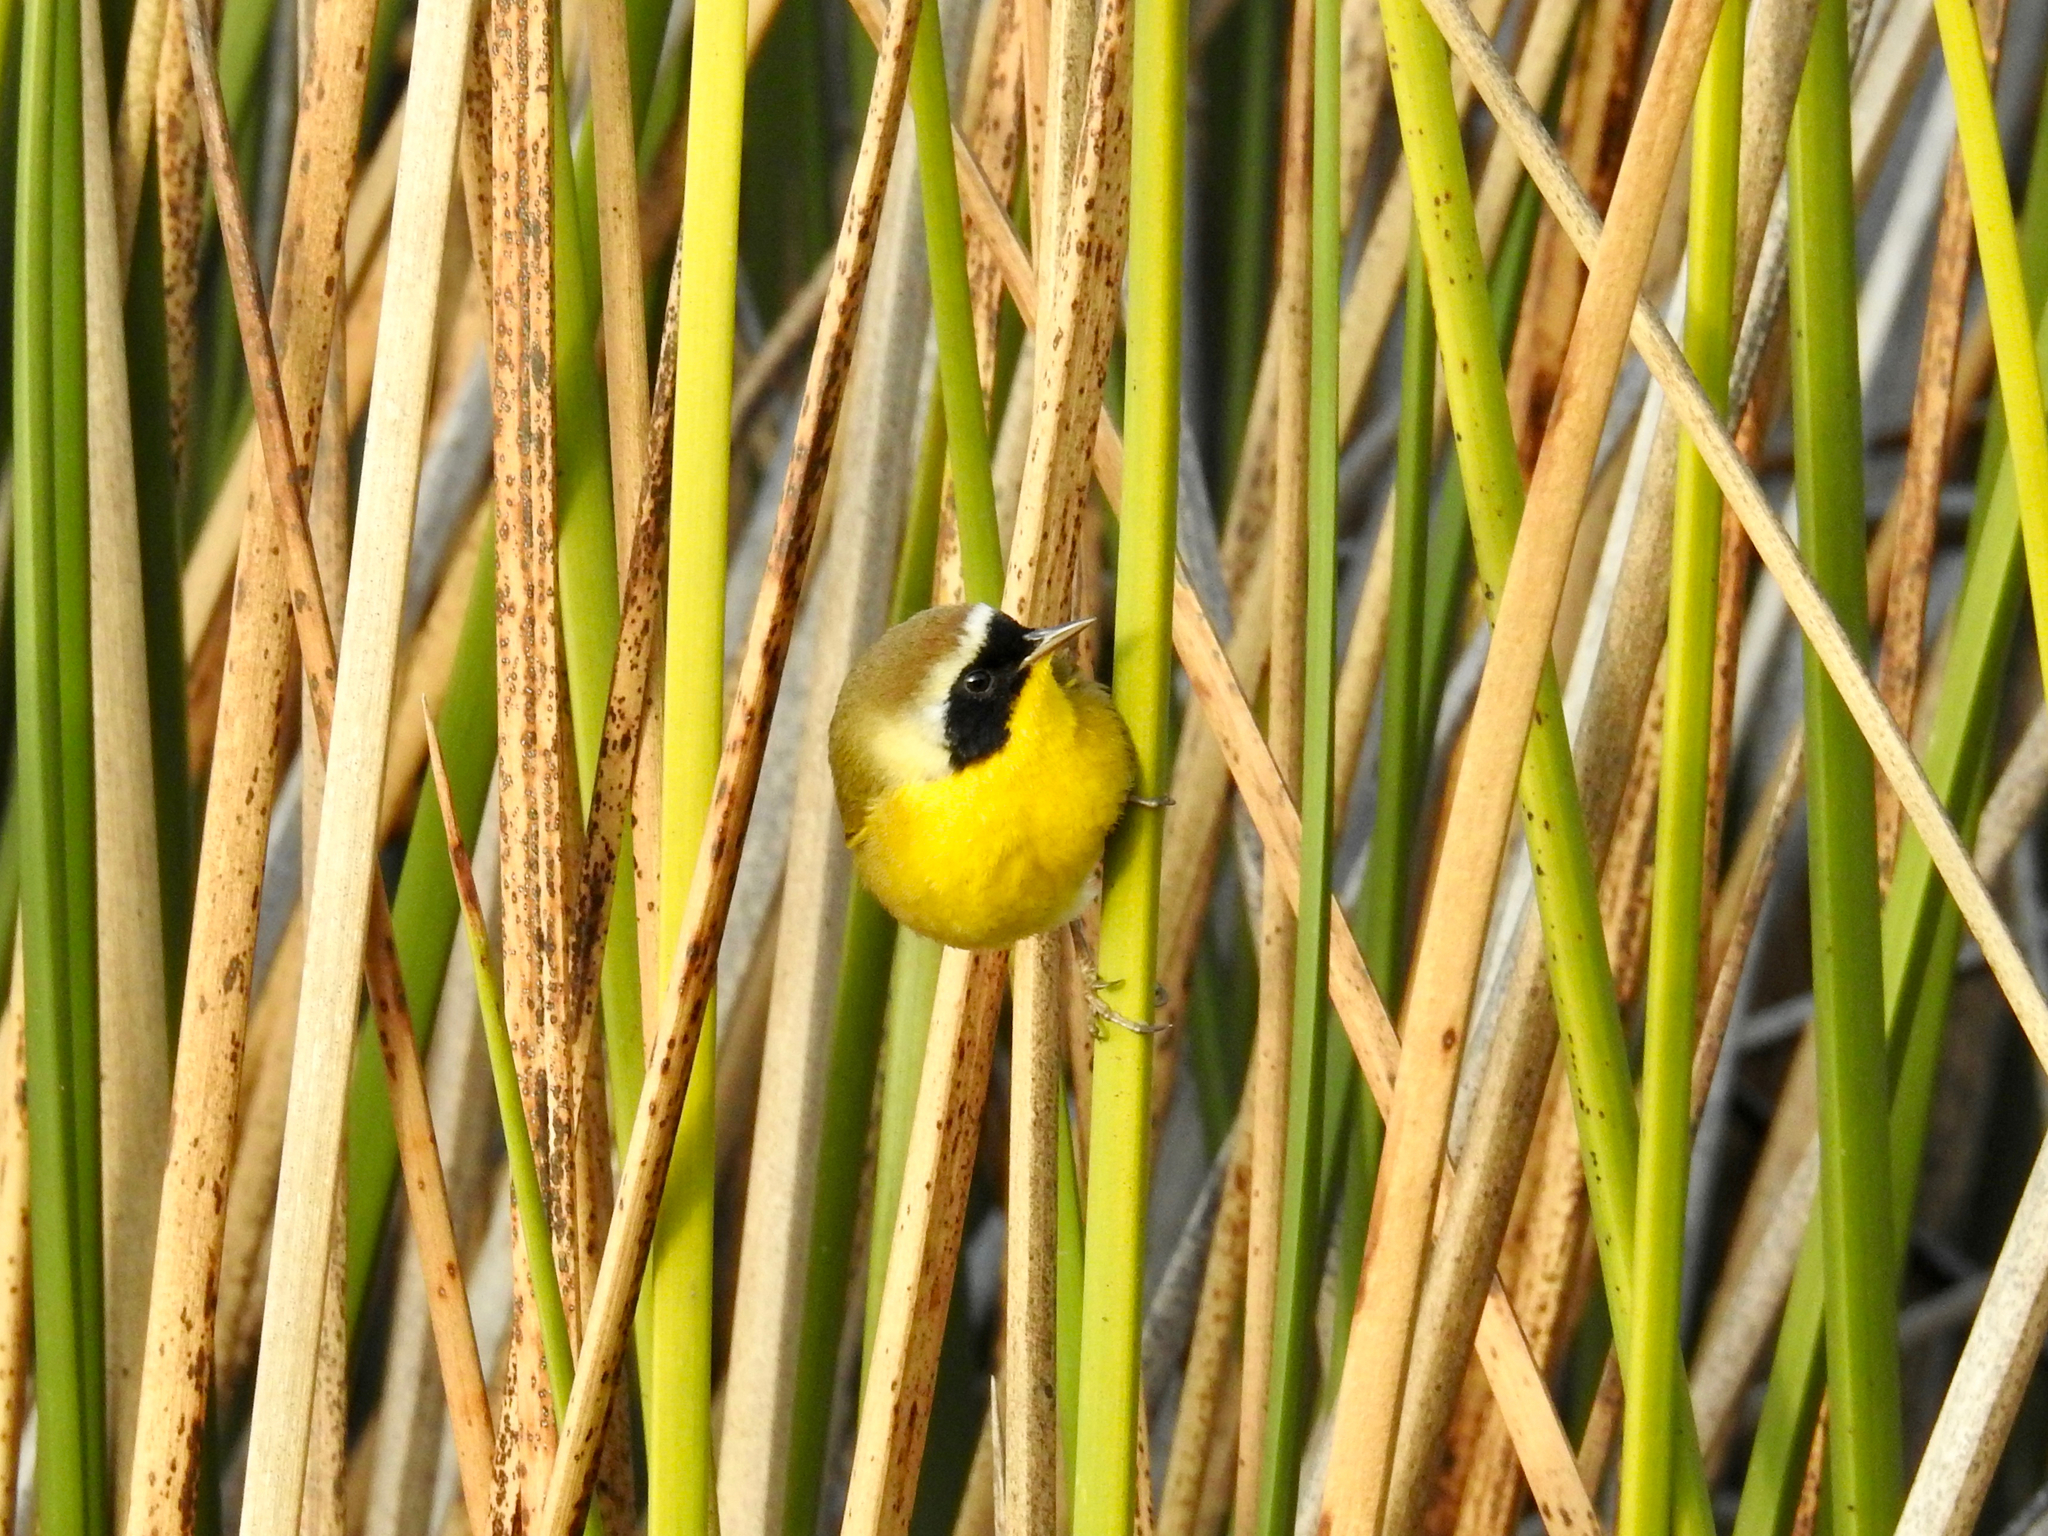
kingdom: Animalia
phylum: Chordata
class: Aves
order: Passeriformes
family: Parulidae
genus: Geothlypis
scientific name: Geothlypis trichas
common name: Common yellowthroat
